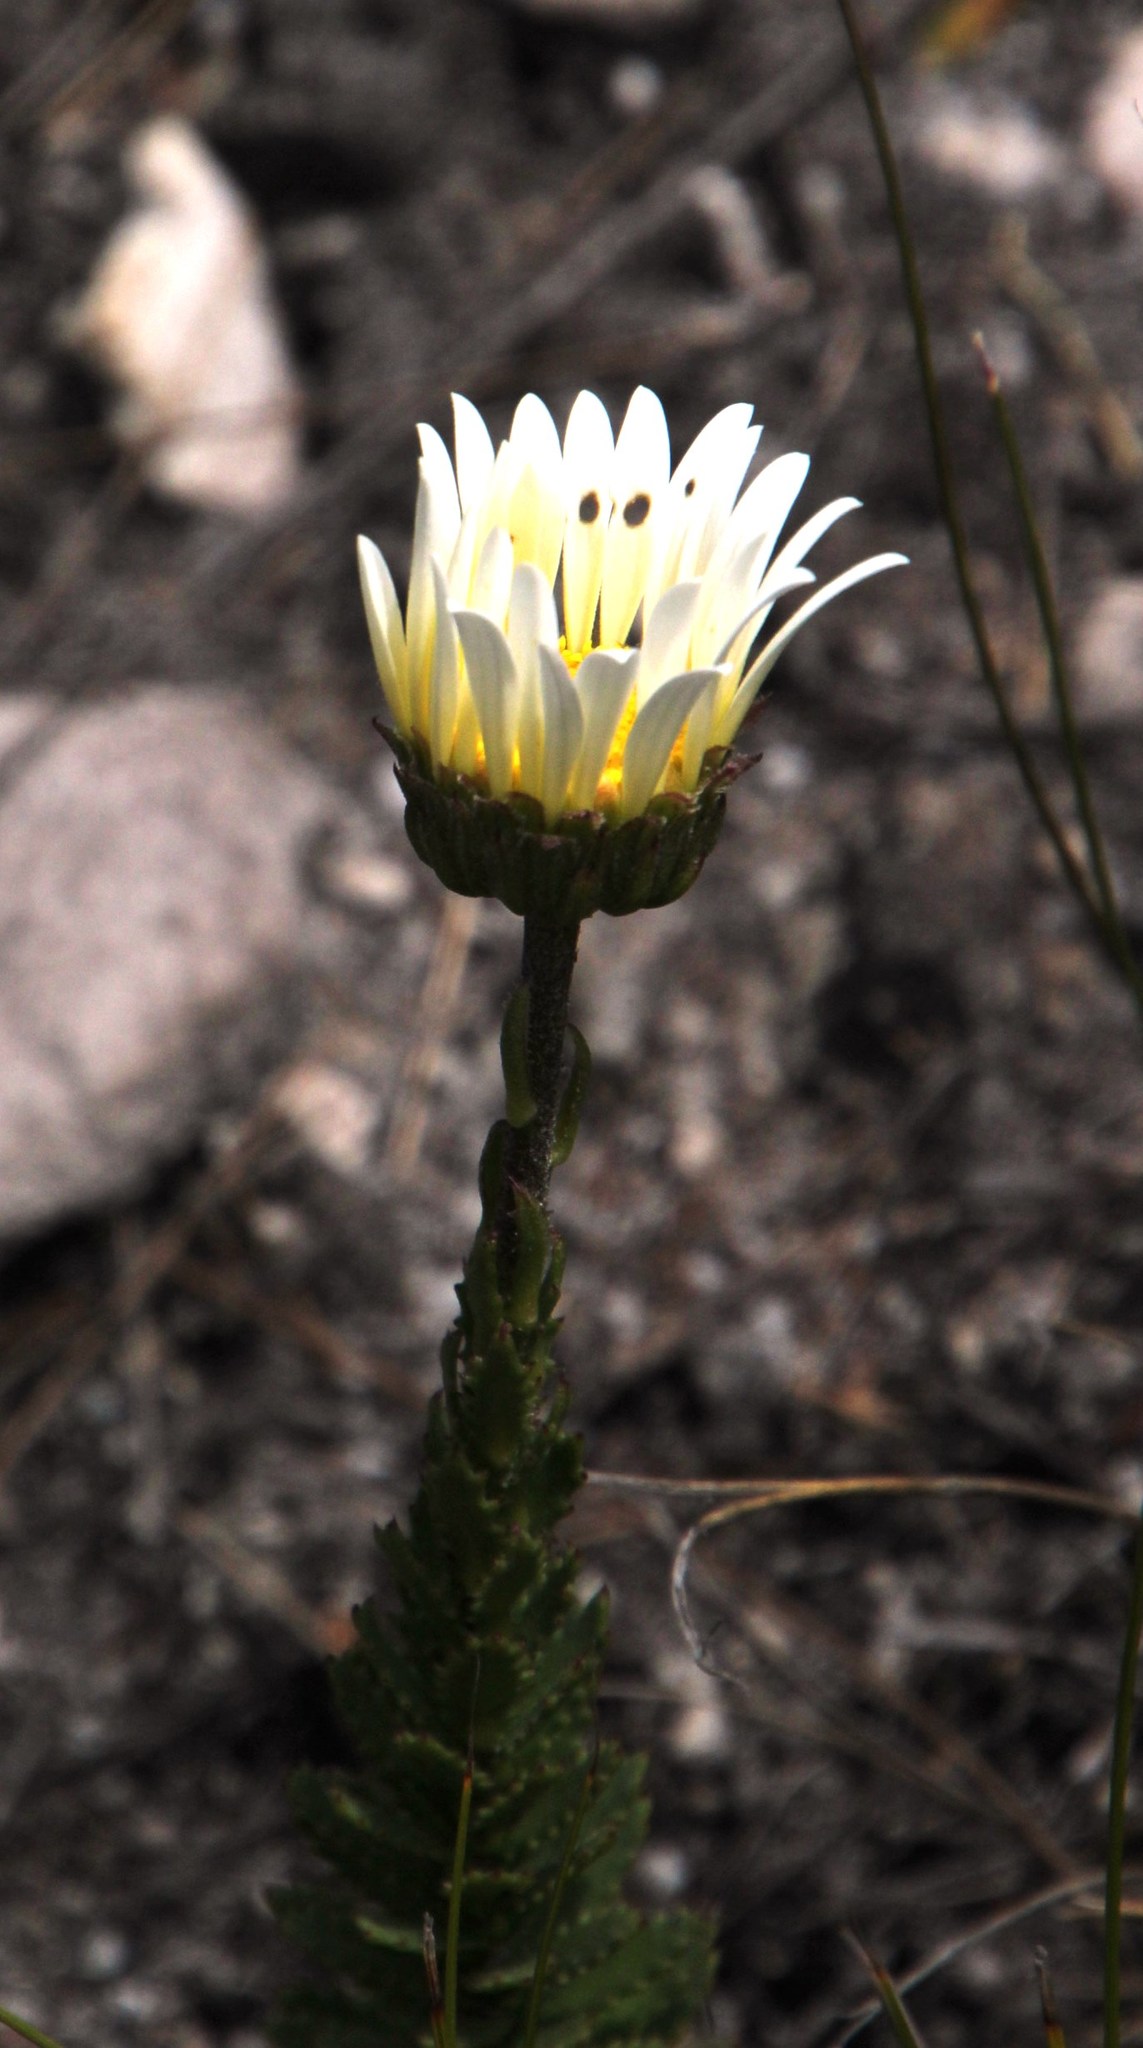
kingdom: Plantae
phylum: Tracheophyta
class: Magnoliopsida
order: Asterales
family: Asteraceae
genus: Osmitopsis
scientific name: Osmitopsis glabra
